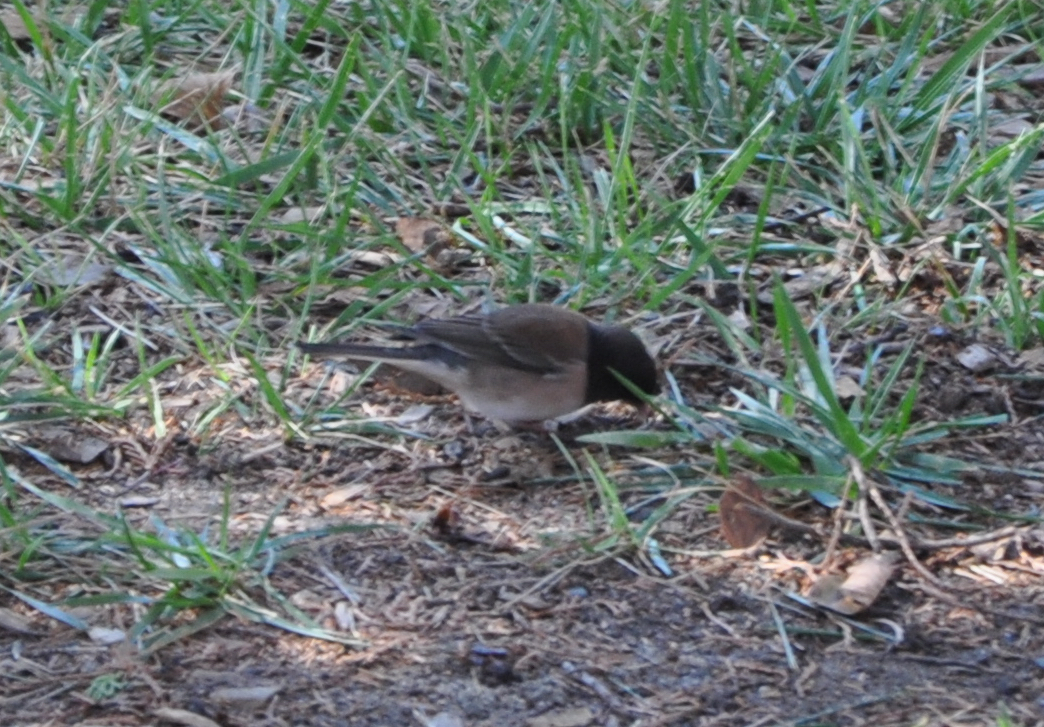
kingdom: Animalia
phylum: Chordata
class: Aves
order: Passeriformes
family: Passerellidae
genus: Junco
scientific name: Junco hyemalis
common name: Dark-eyed junco
